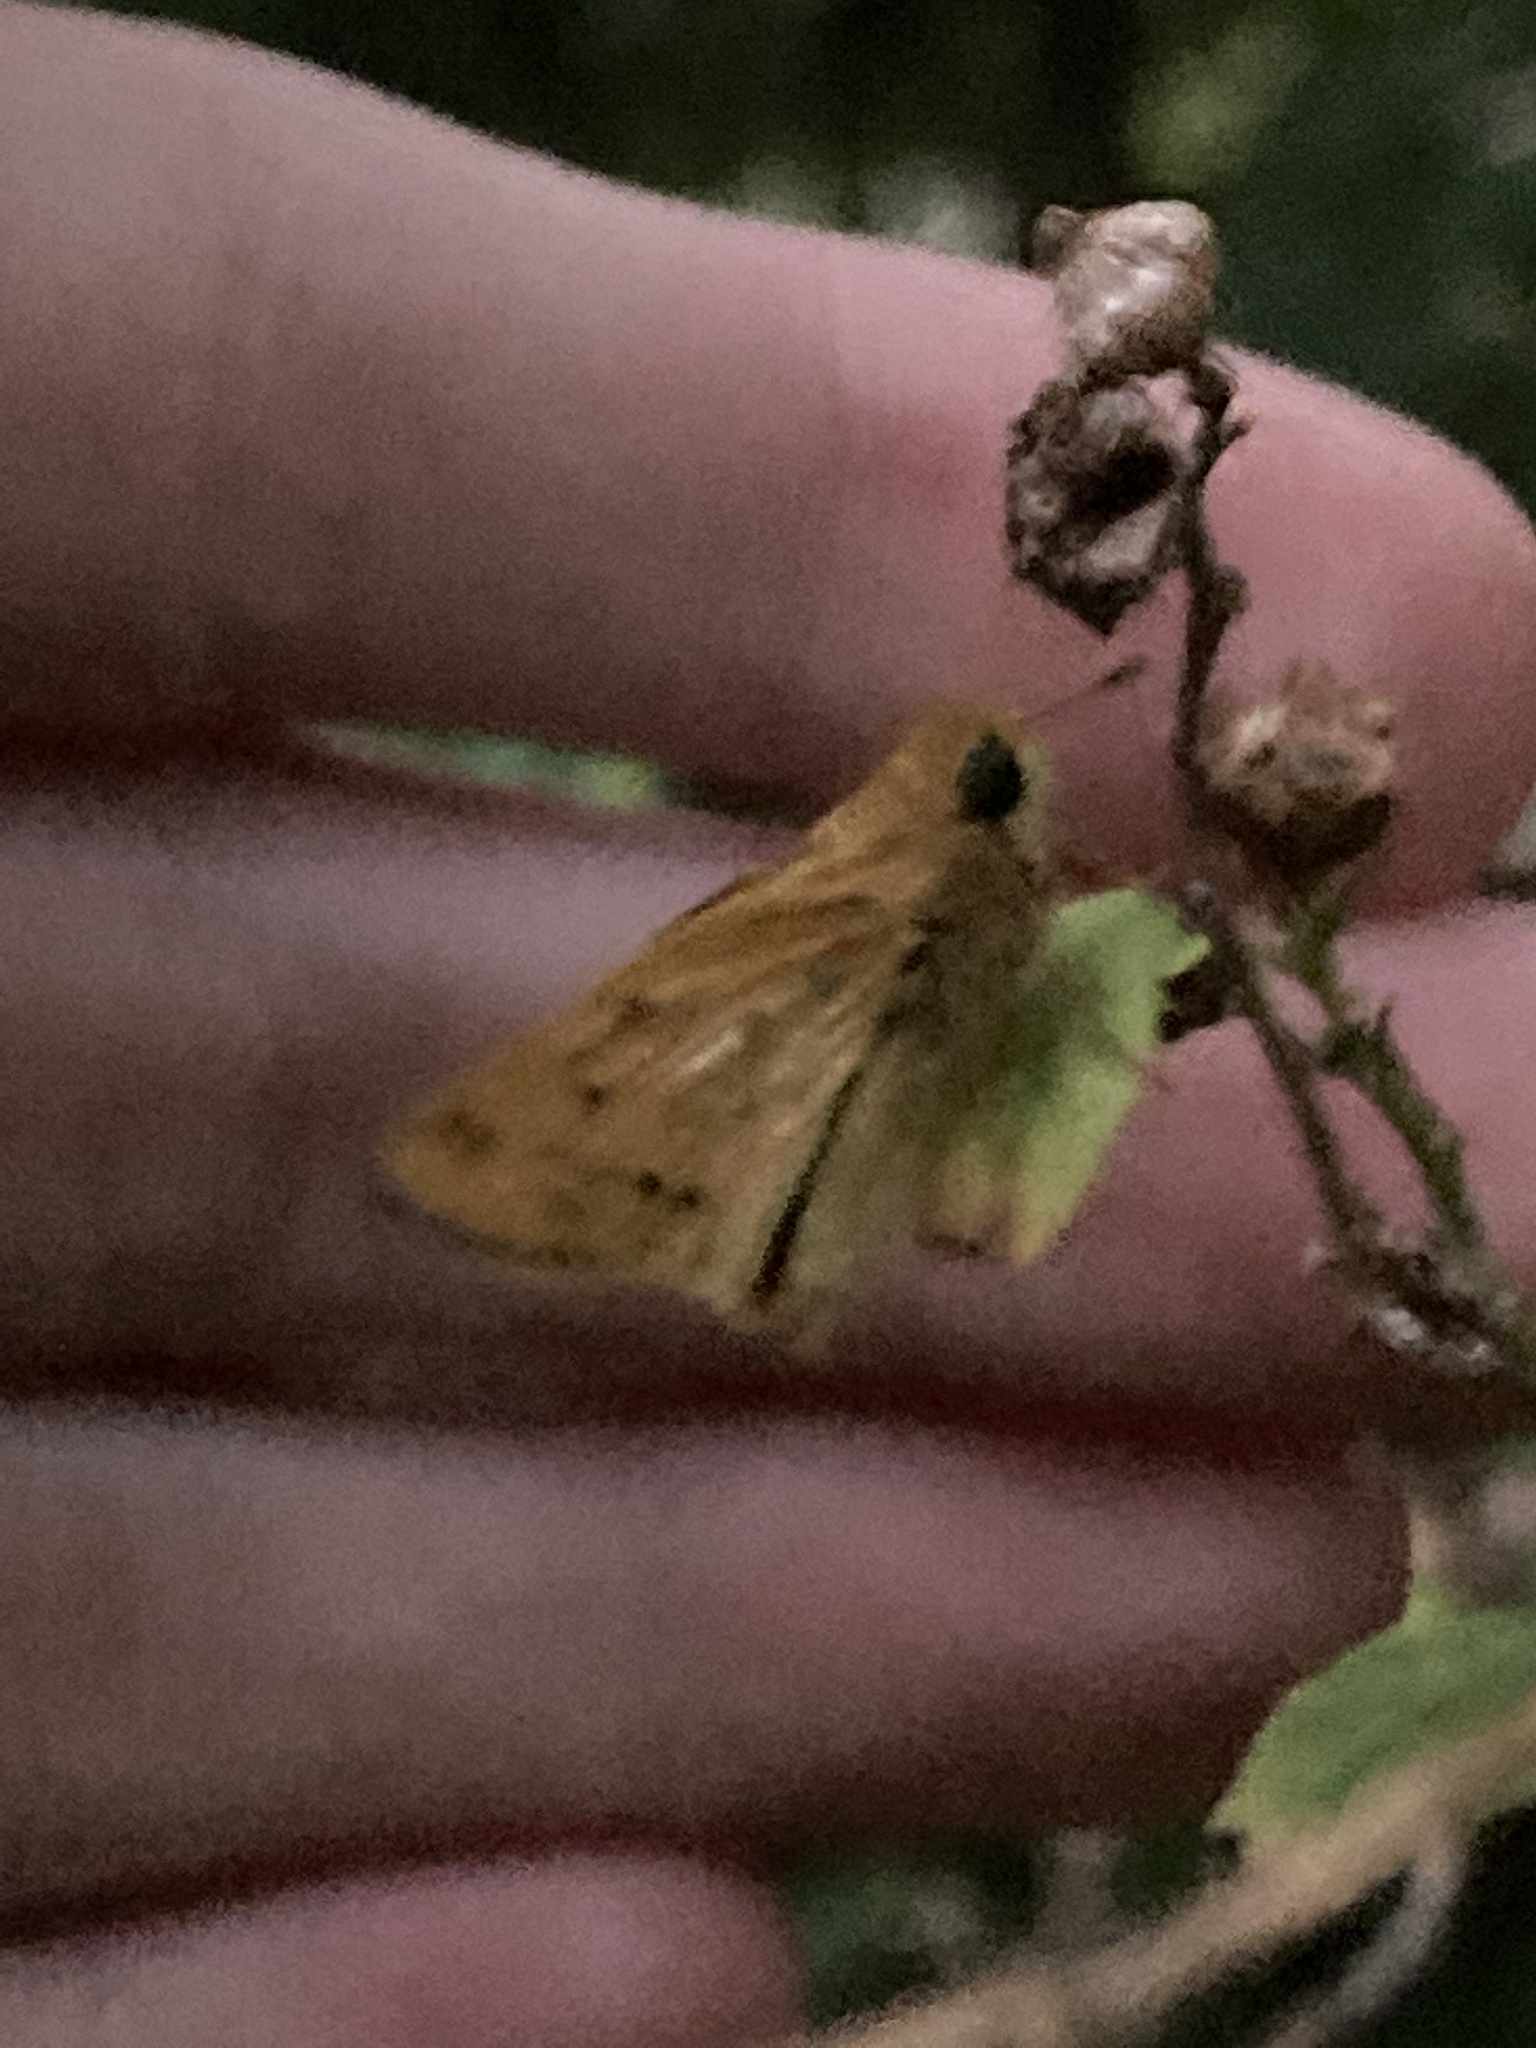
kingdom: Animalia
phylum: Arthropoda
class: Insecta
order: Lepidoptera
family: Hesperiidae
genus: Hylephila
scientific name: Hylephila phyleus
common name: Fiery skipper
